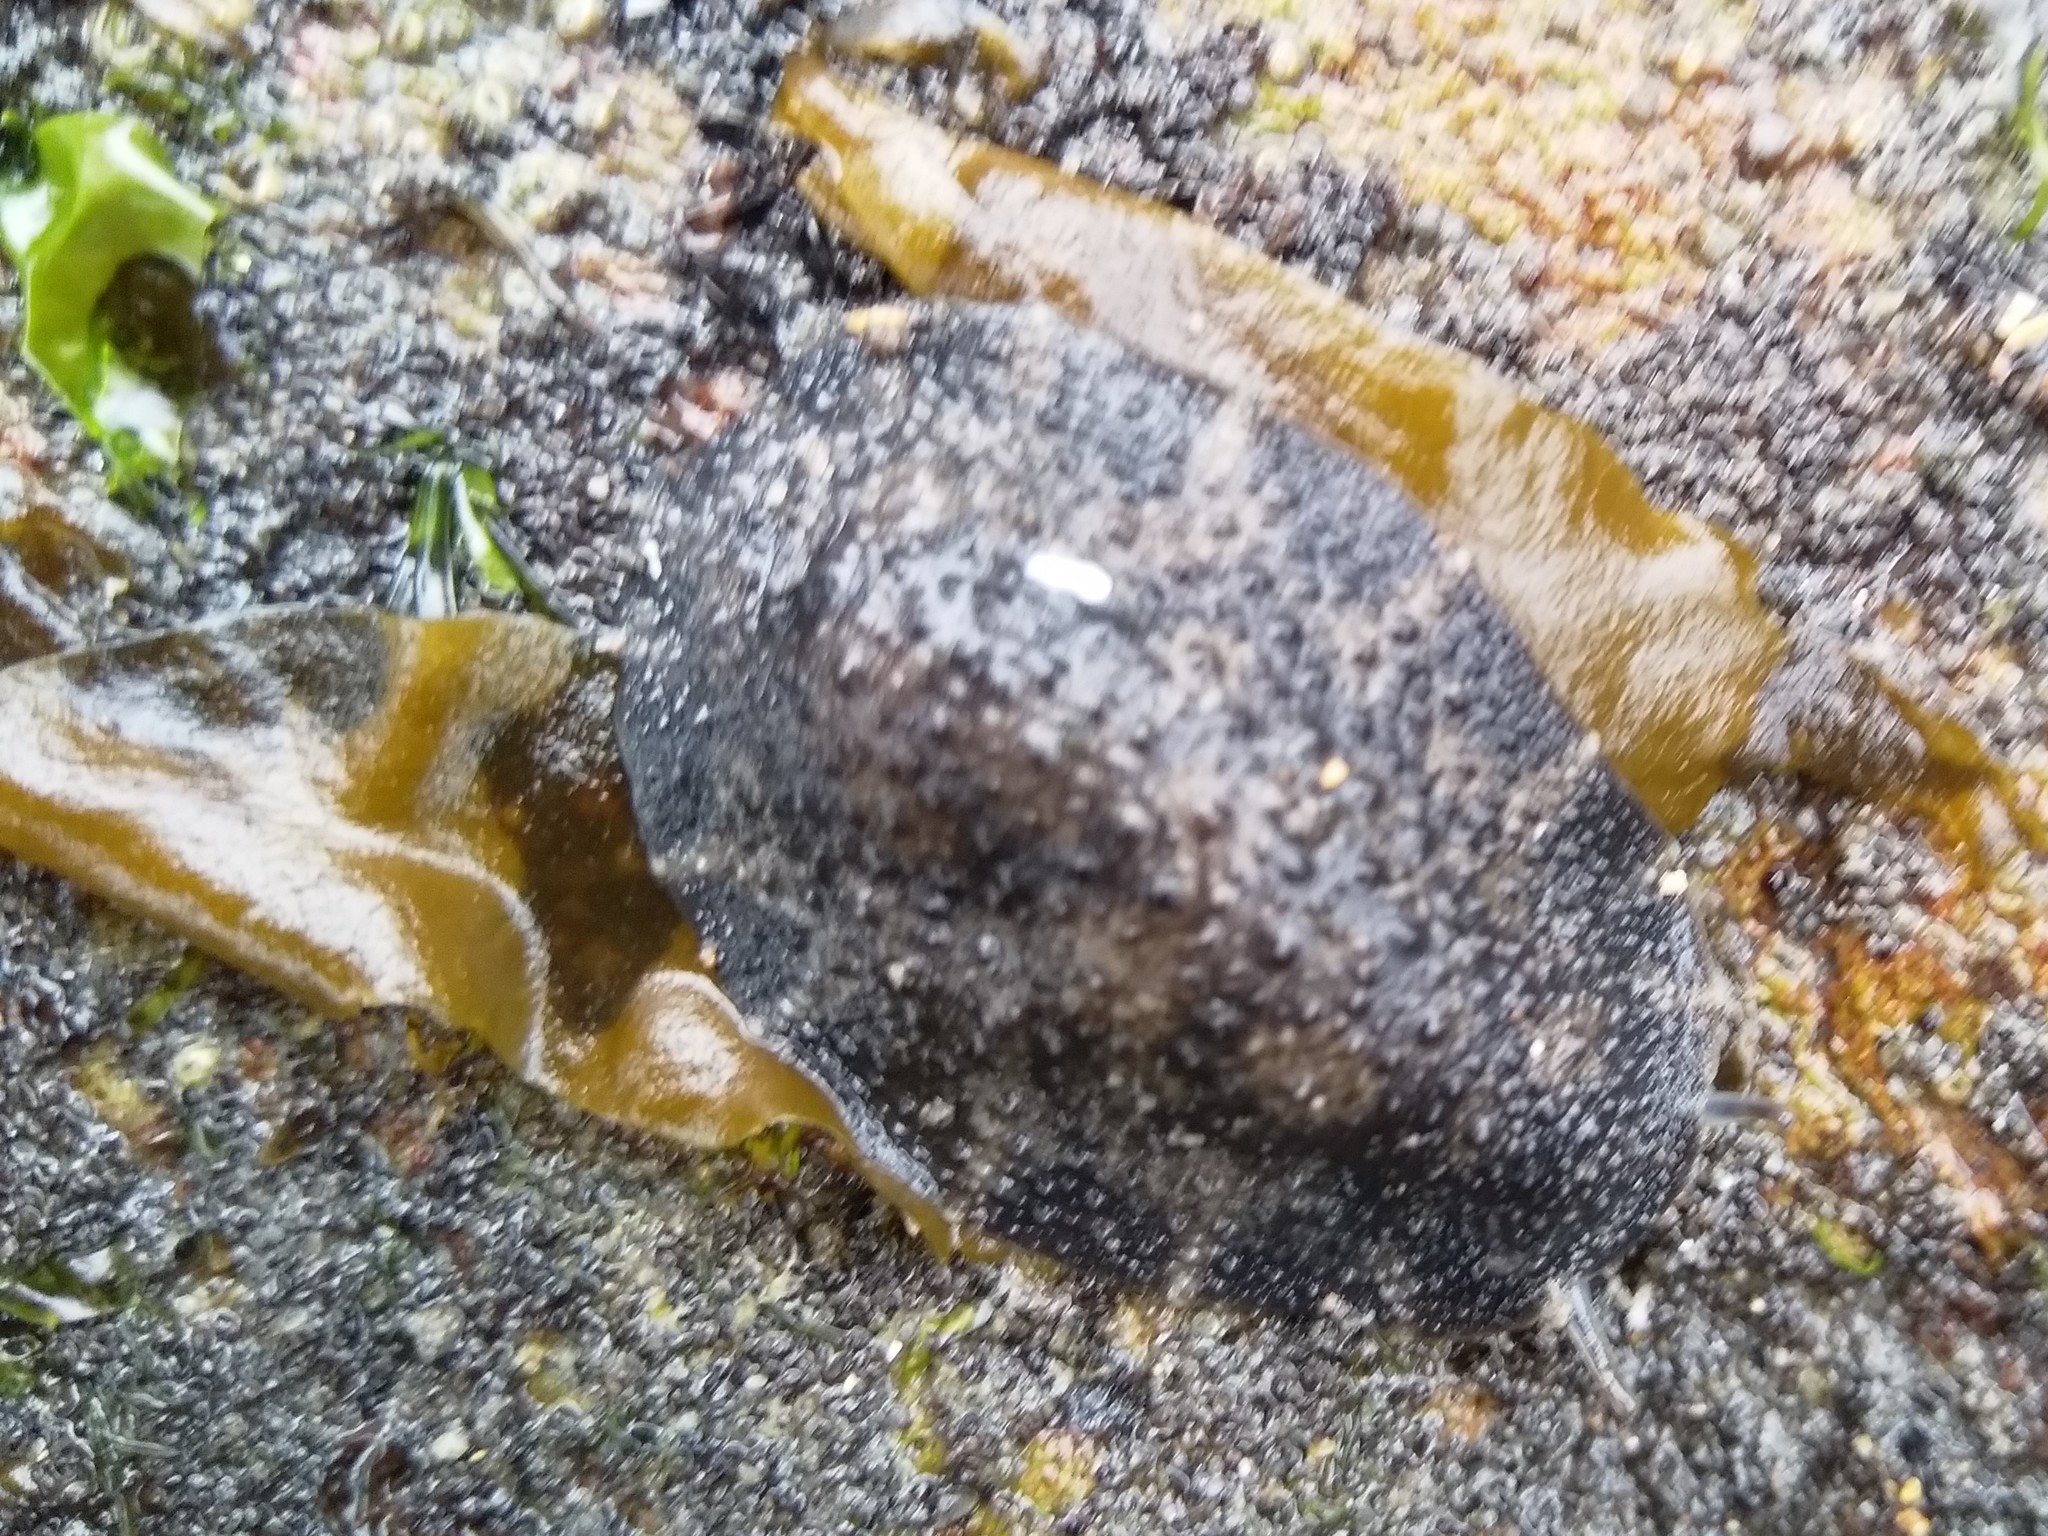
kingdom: Animalia
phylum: Mollusca
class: Gastropoda
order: Systellommatophora
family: Onchidiidae
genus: Onchidella
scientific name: Onchidella nigricans
